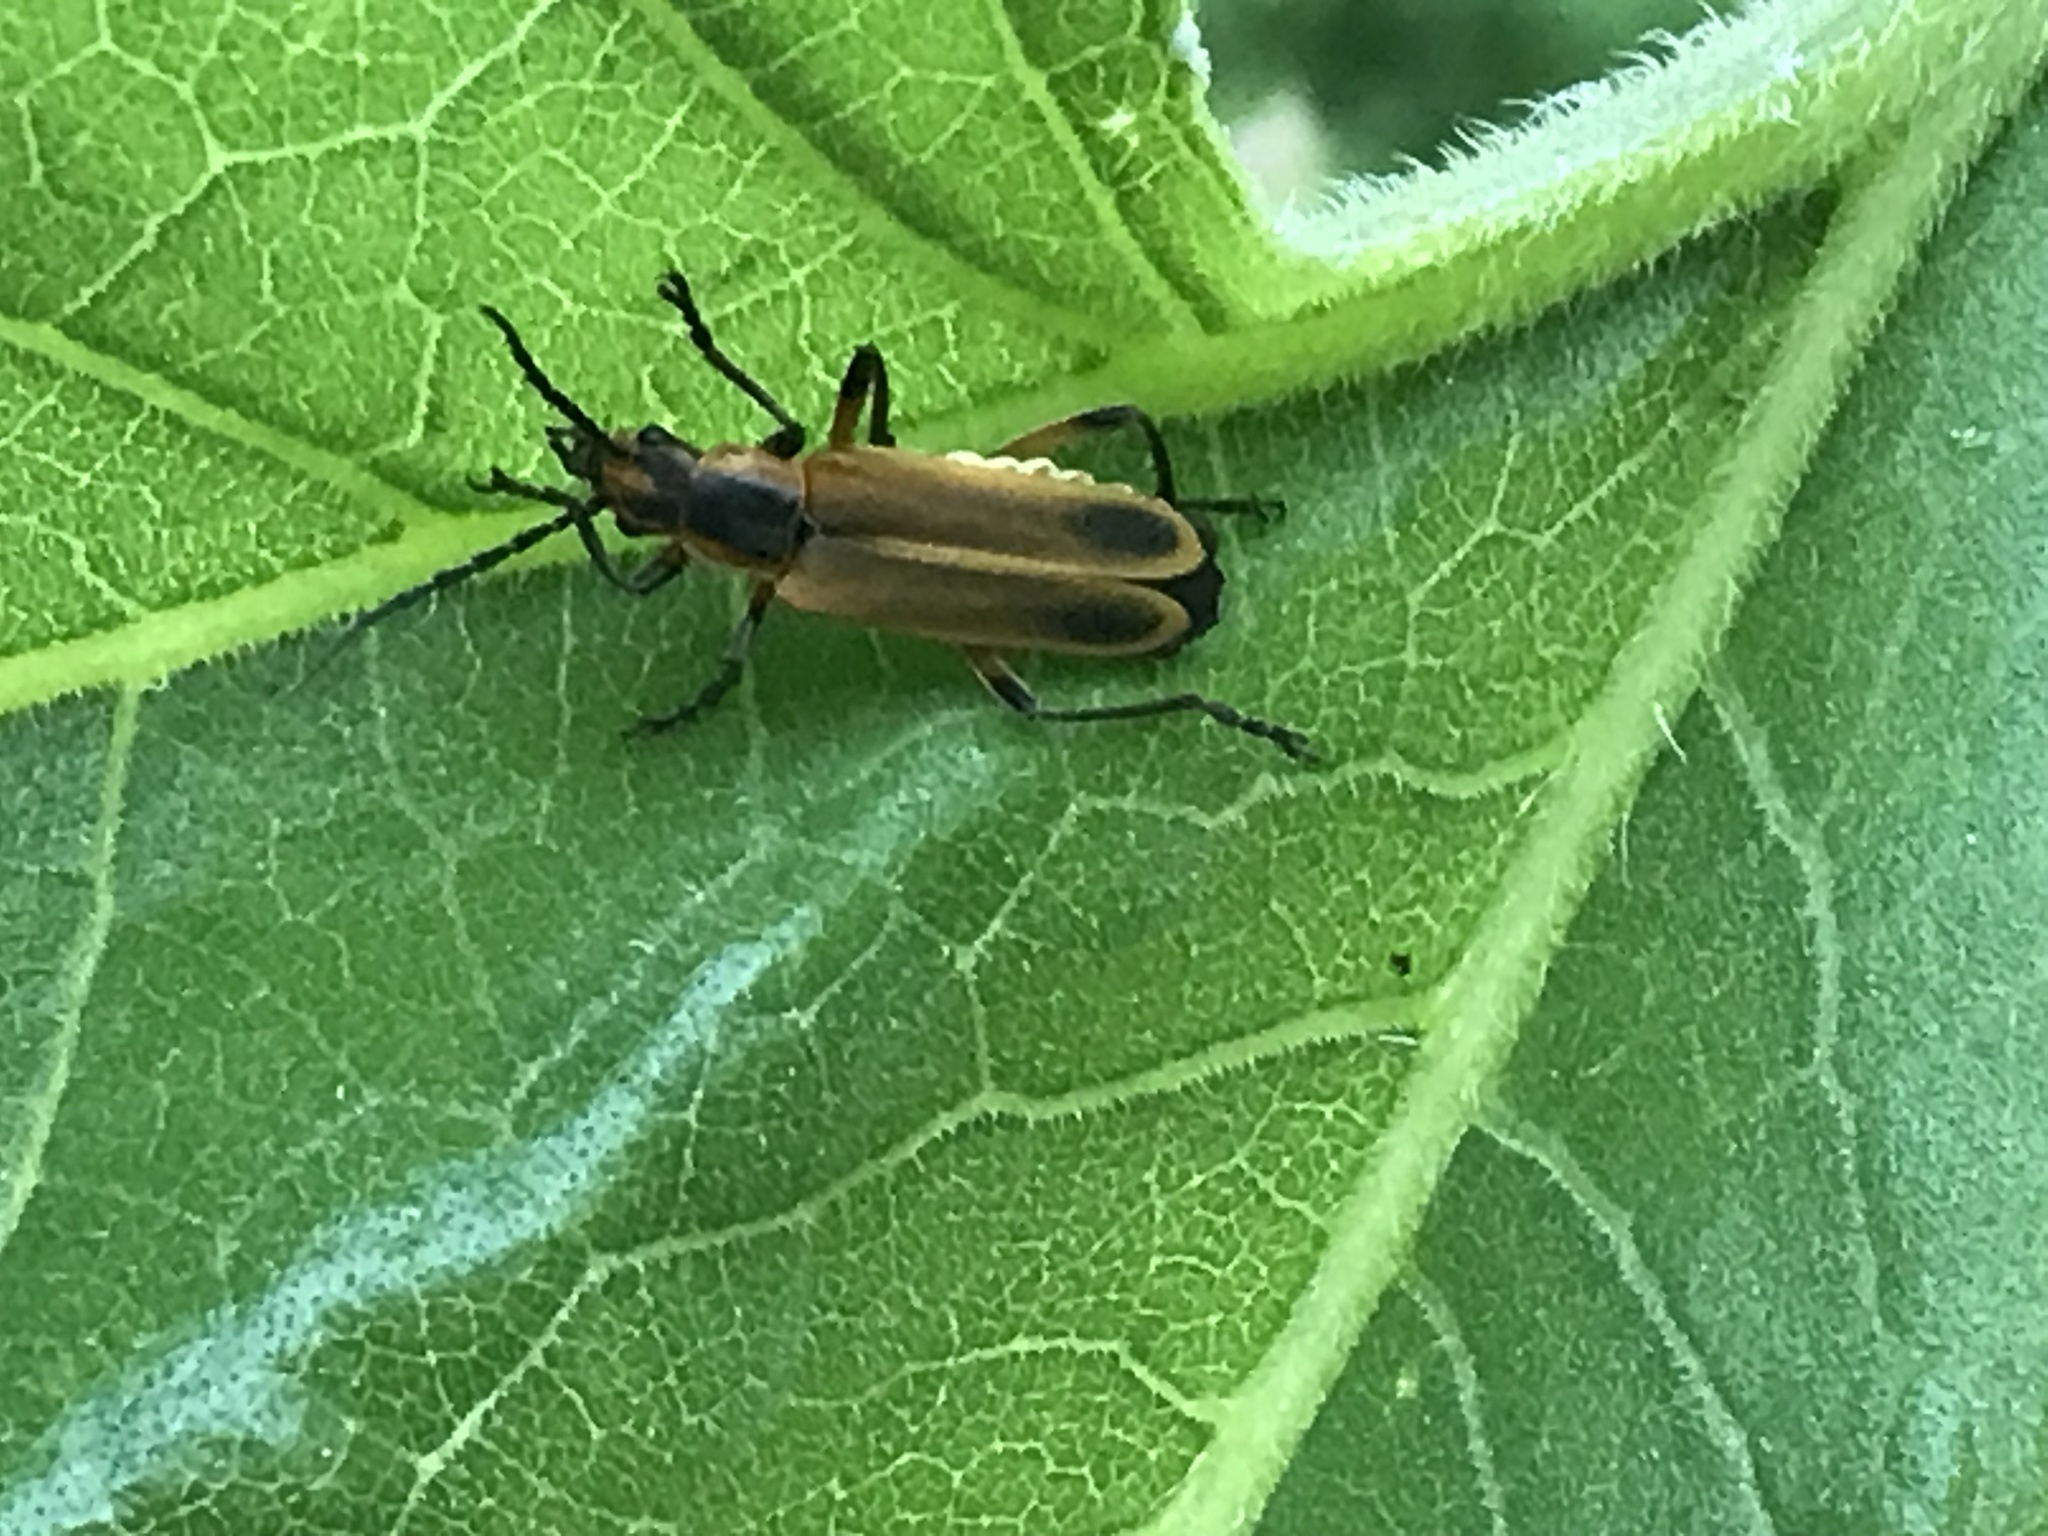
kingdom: Animalia
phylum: Arthropoda
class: Insecta
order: Coleoptera
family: Cantharidae
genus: Chauliognathus
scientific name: Chauliognathus marginatus
